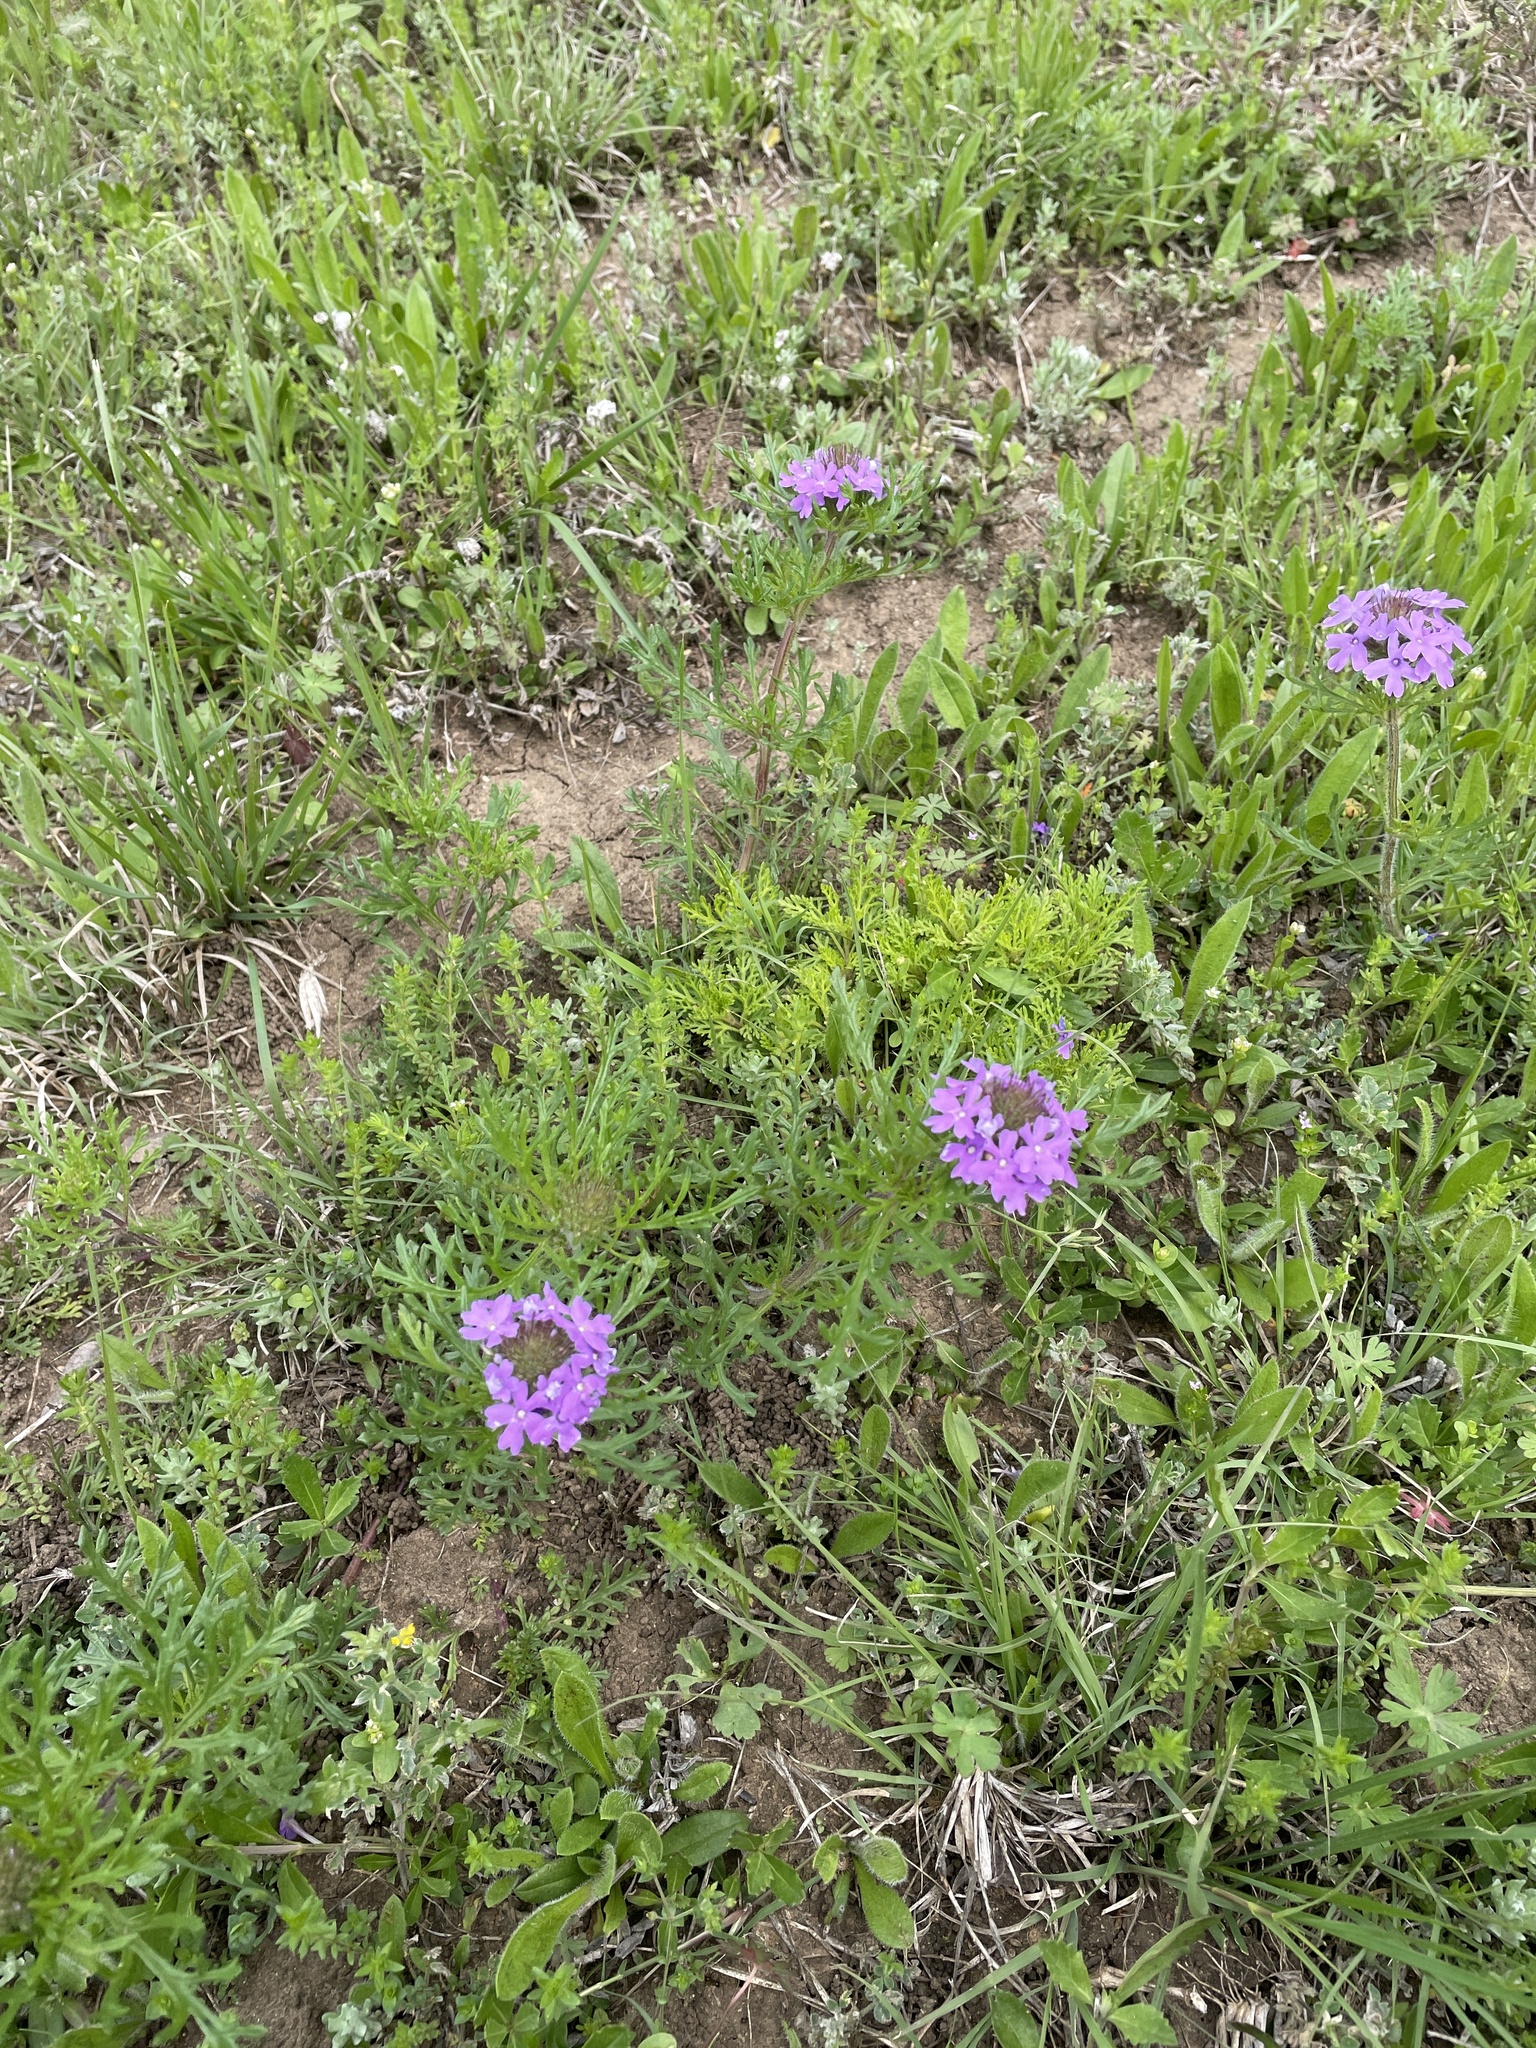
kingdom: Plantae
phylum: Tracheophyta
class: Magnoliopsida
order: Lamiales
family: Verbenaceae
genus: Verbena
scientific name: Verbena bipinnatifida
